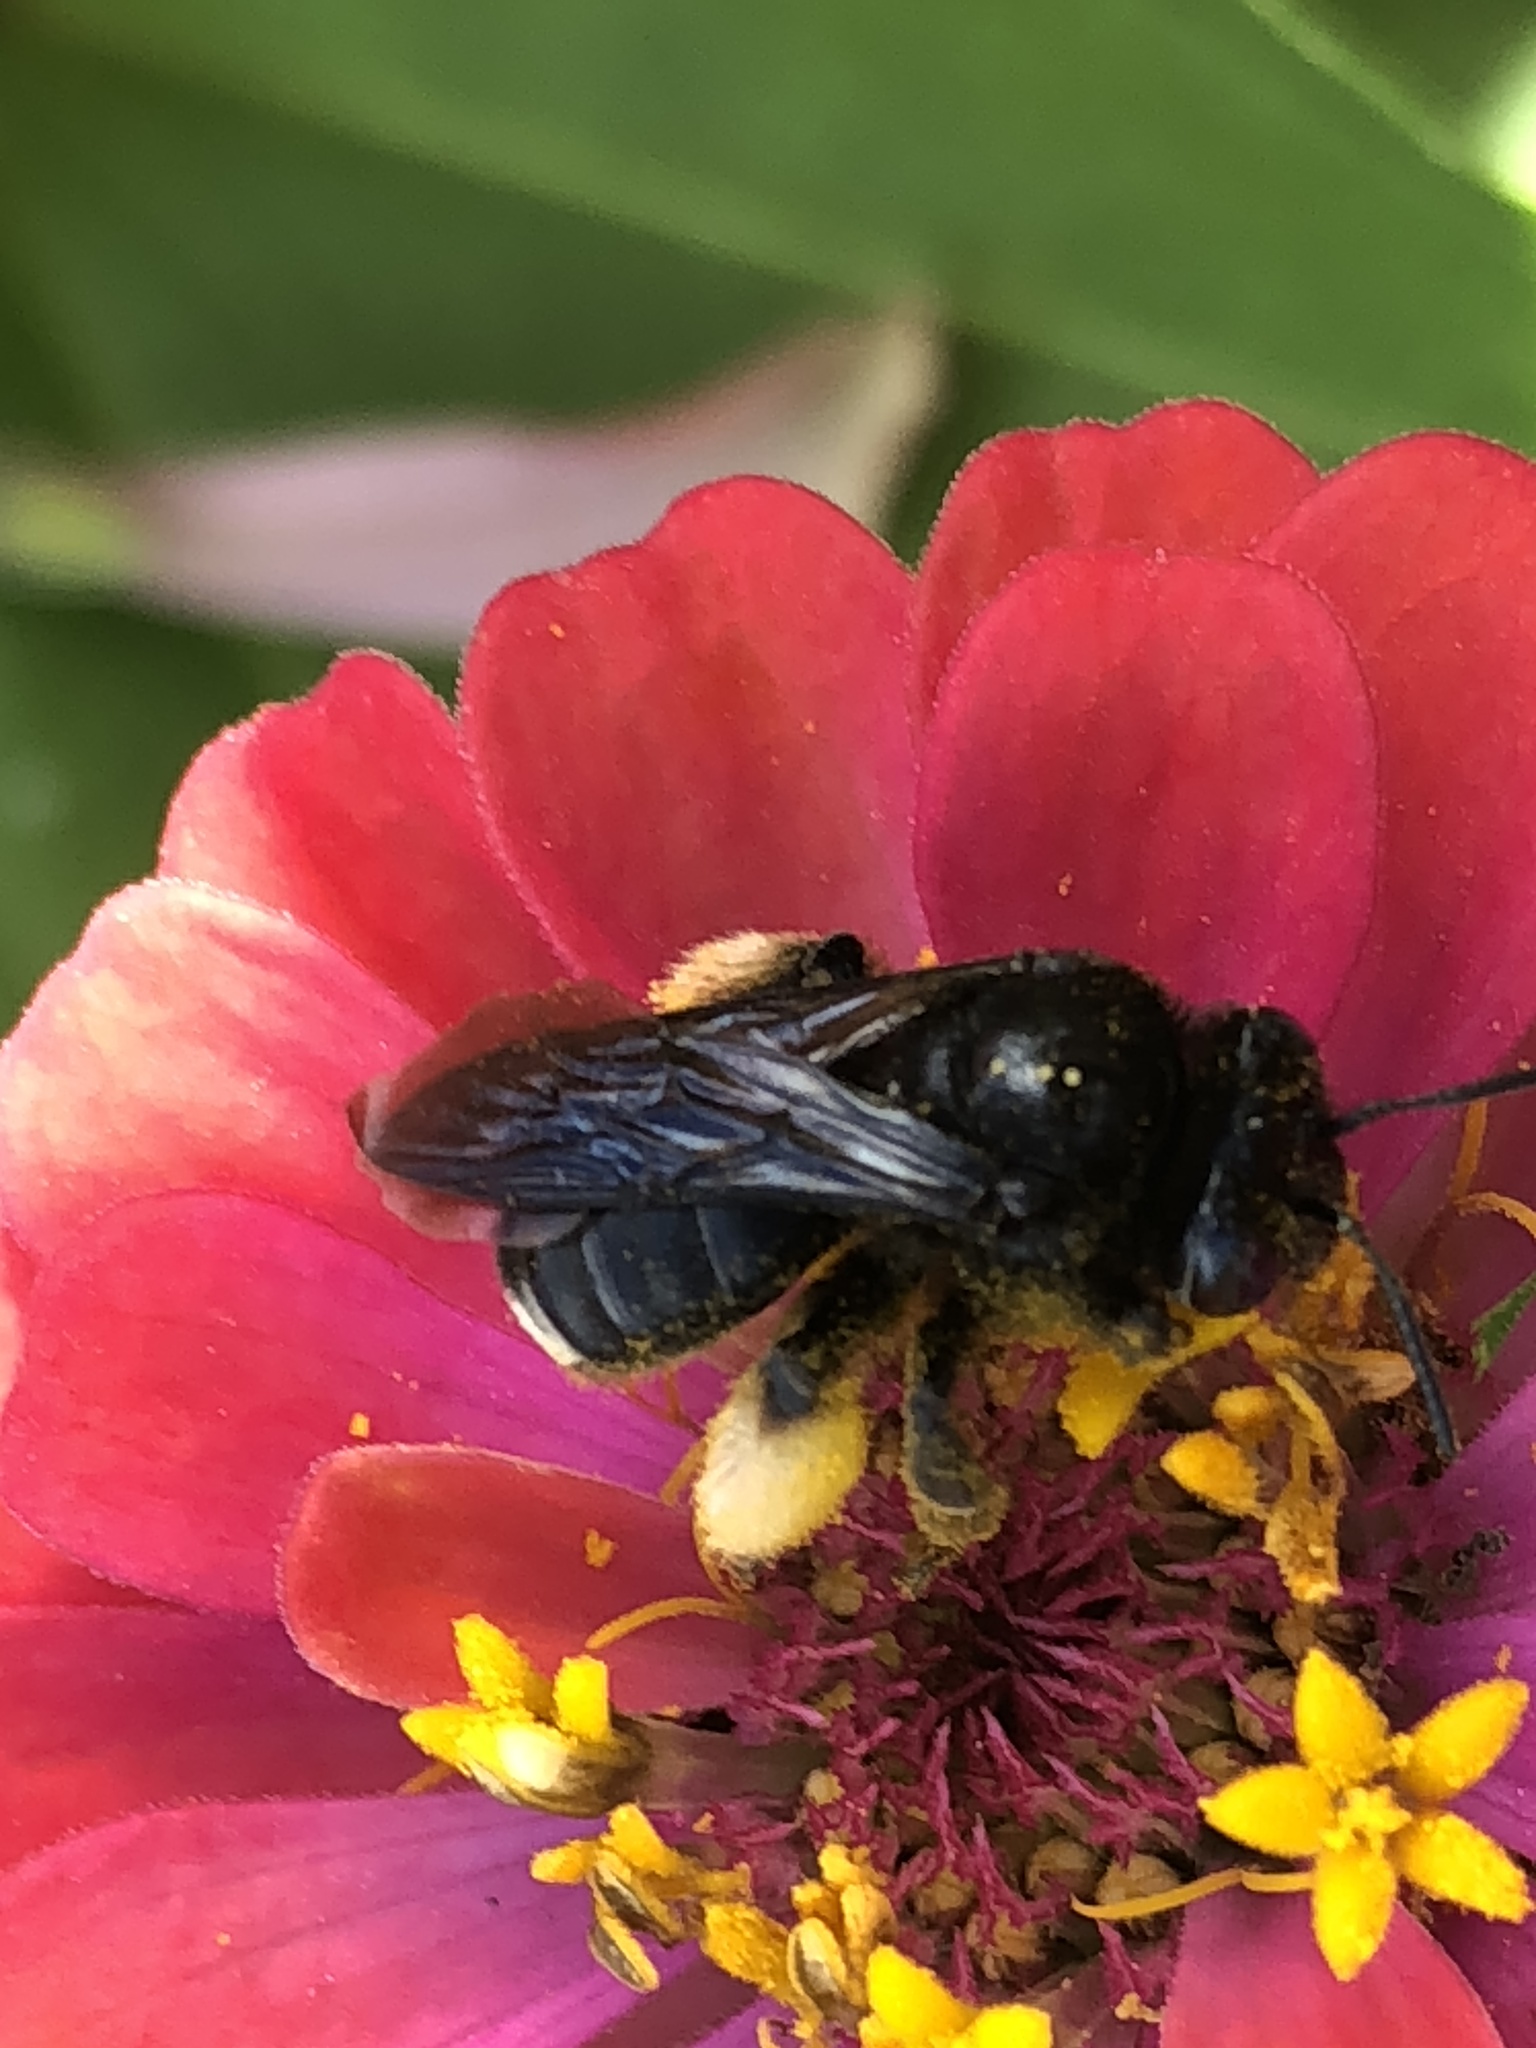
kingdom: Animalia
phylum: Arthropoda
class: Insecta
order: Hymenoptera
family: Apidae
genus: Melissodes
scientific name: Melissodes bimaculatus
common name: Two-spotted long-horned bee
